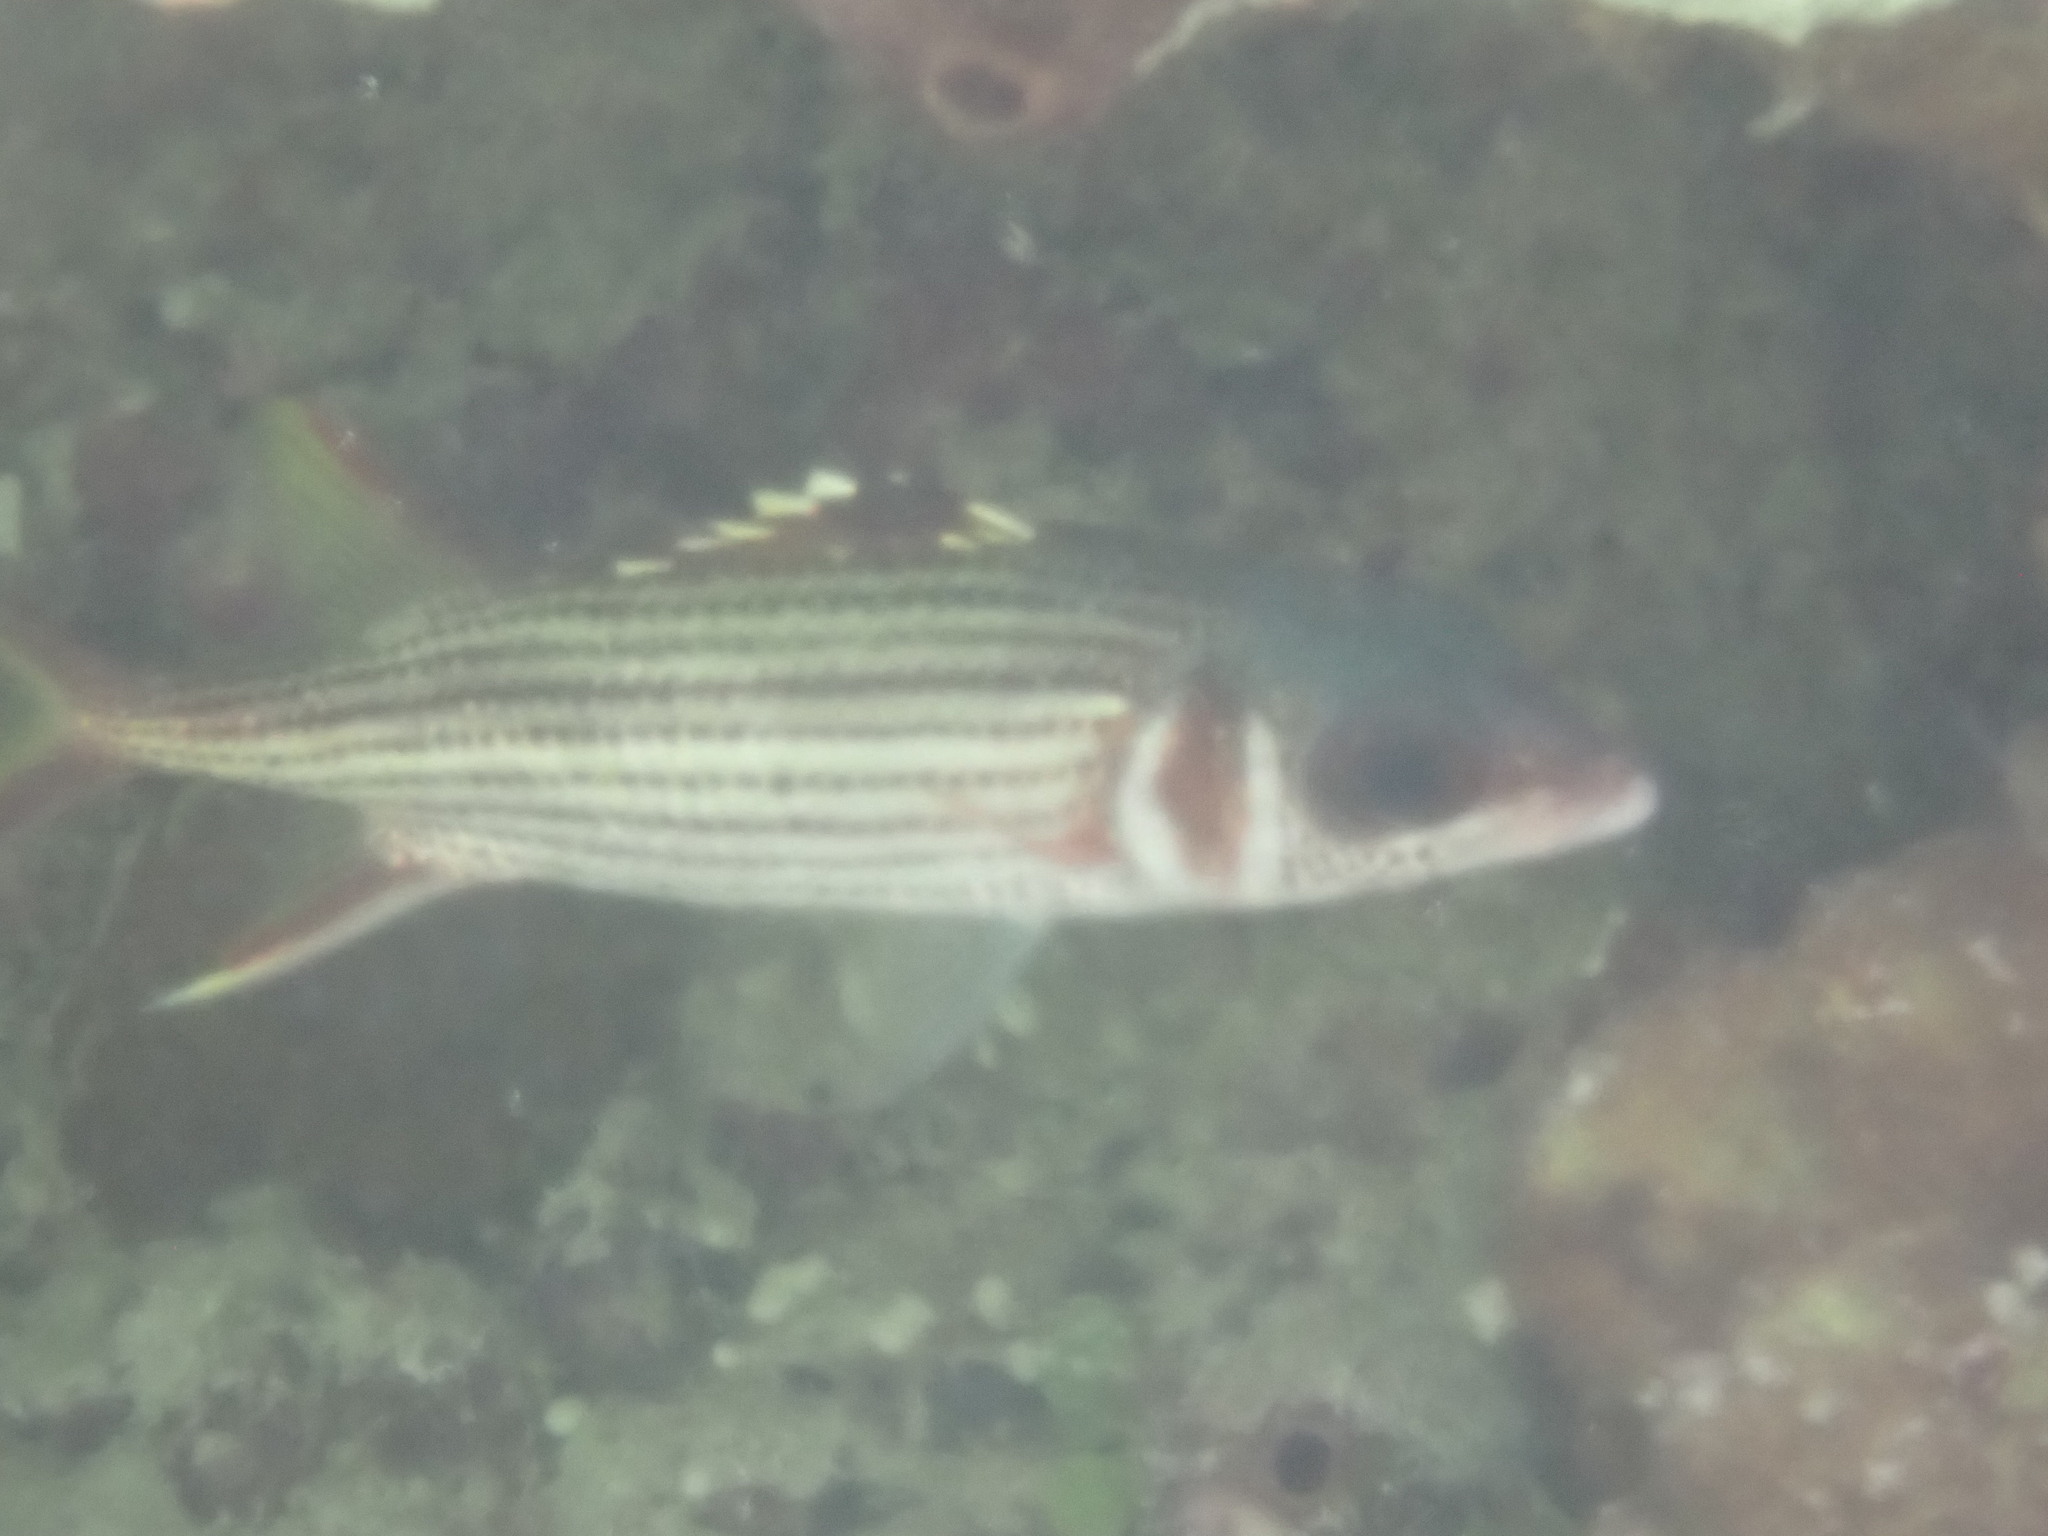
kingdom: Animalia
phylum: Chordata
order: Beryciformes
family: Holocentridae
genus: Neoniphon
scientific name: Neoniphon sammara
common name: Sammara squirrelfish
